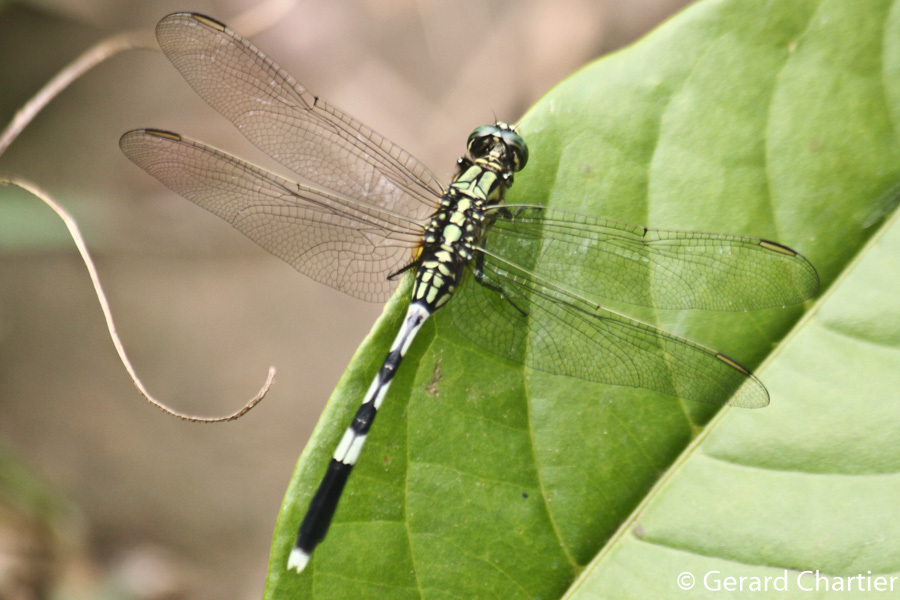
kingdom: Animalia
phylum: Arthropoda
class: Insecta
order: Odonata
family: Libellulidae
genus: Orthetrum
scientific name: Orthetrum sabina
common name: Slender skimmer
